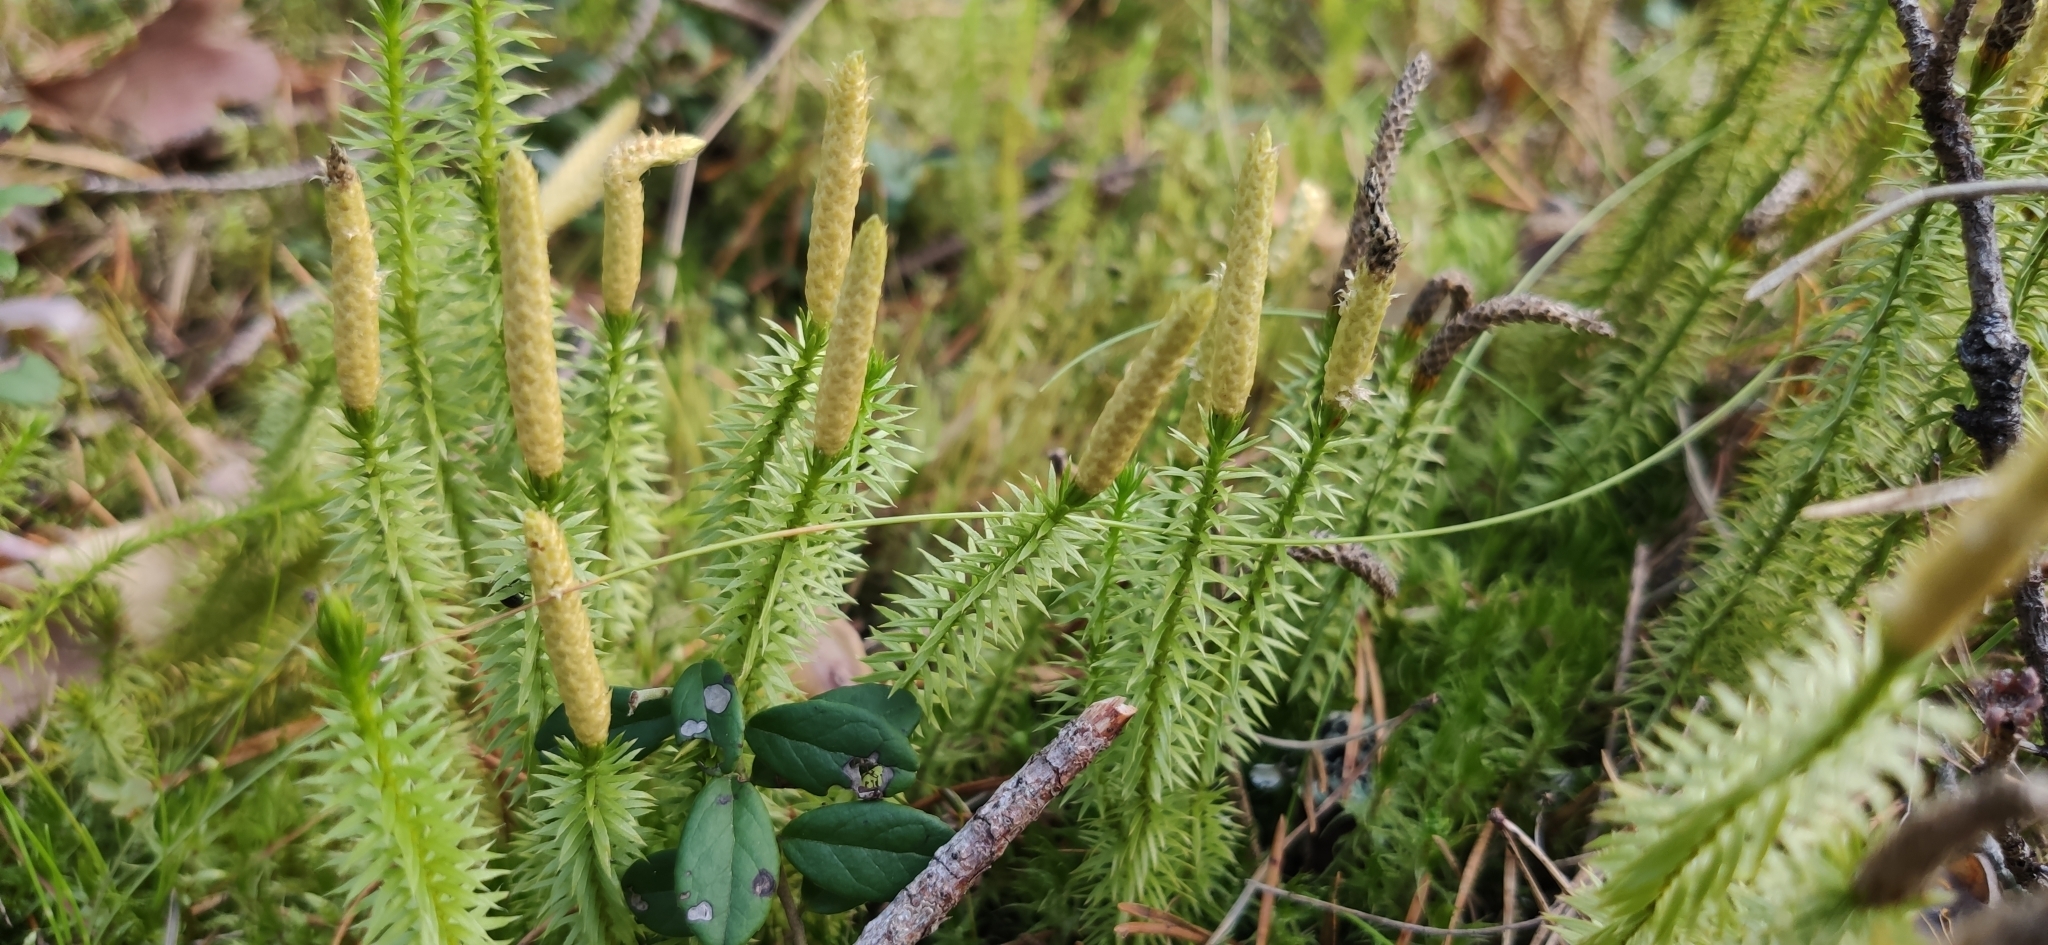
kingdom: Plantae
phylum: Tracheophyta
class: Lycopodiopsida
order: Lycopodiales
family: Lycopodiaceae
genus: Spinulum
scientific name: Spinulum annotinum
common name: Interrupted club-moss
